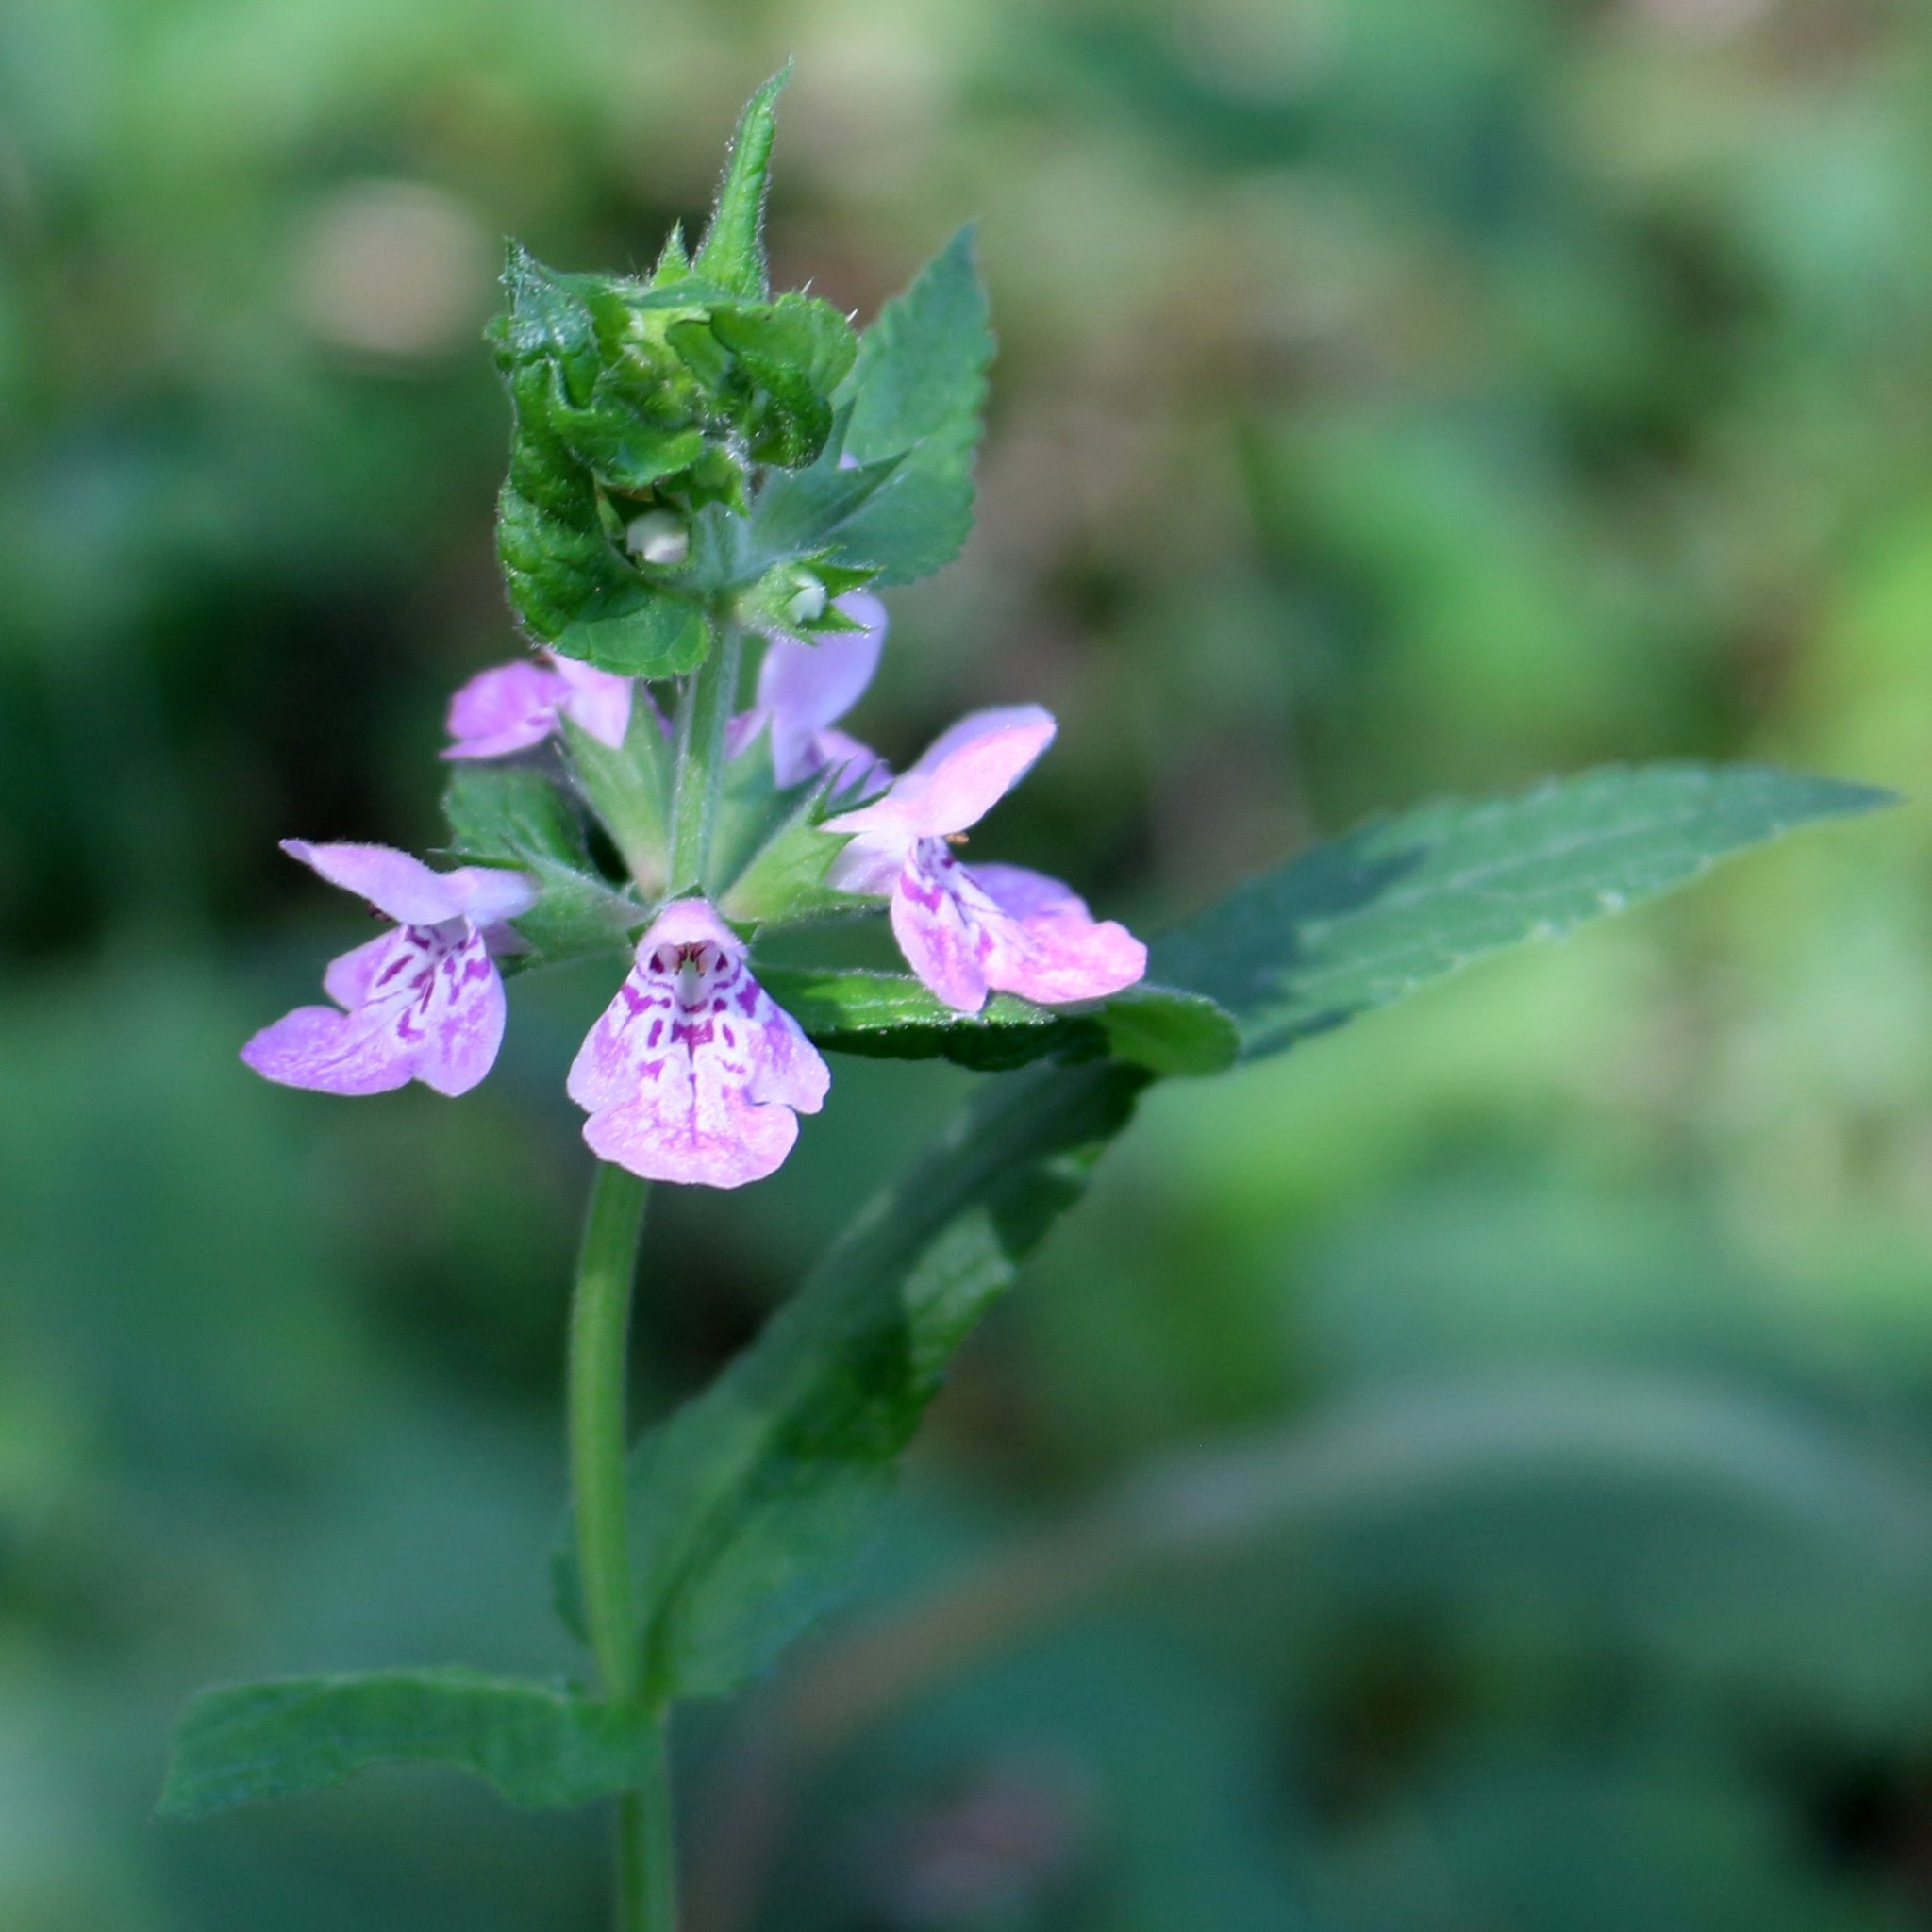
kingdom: Plantae
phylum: Tracheophyta
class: Magnoliopsida
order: Lamiales
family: Lamiaceae
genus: Stachys
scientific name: Stachys palustris
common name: Marsh woundwort
